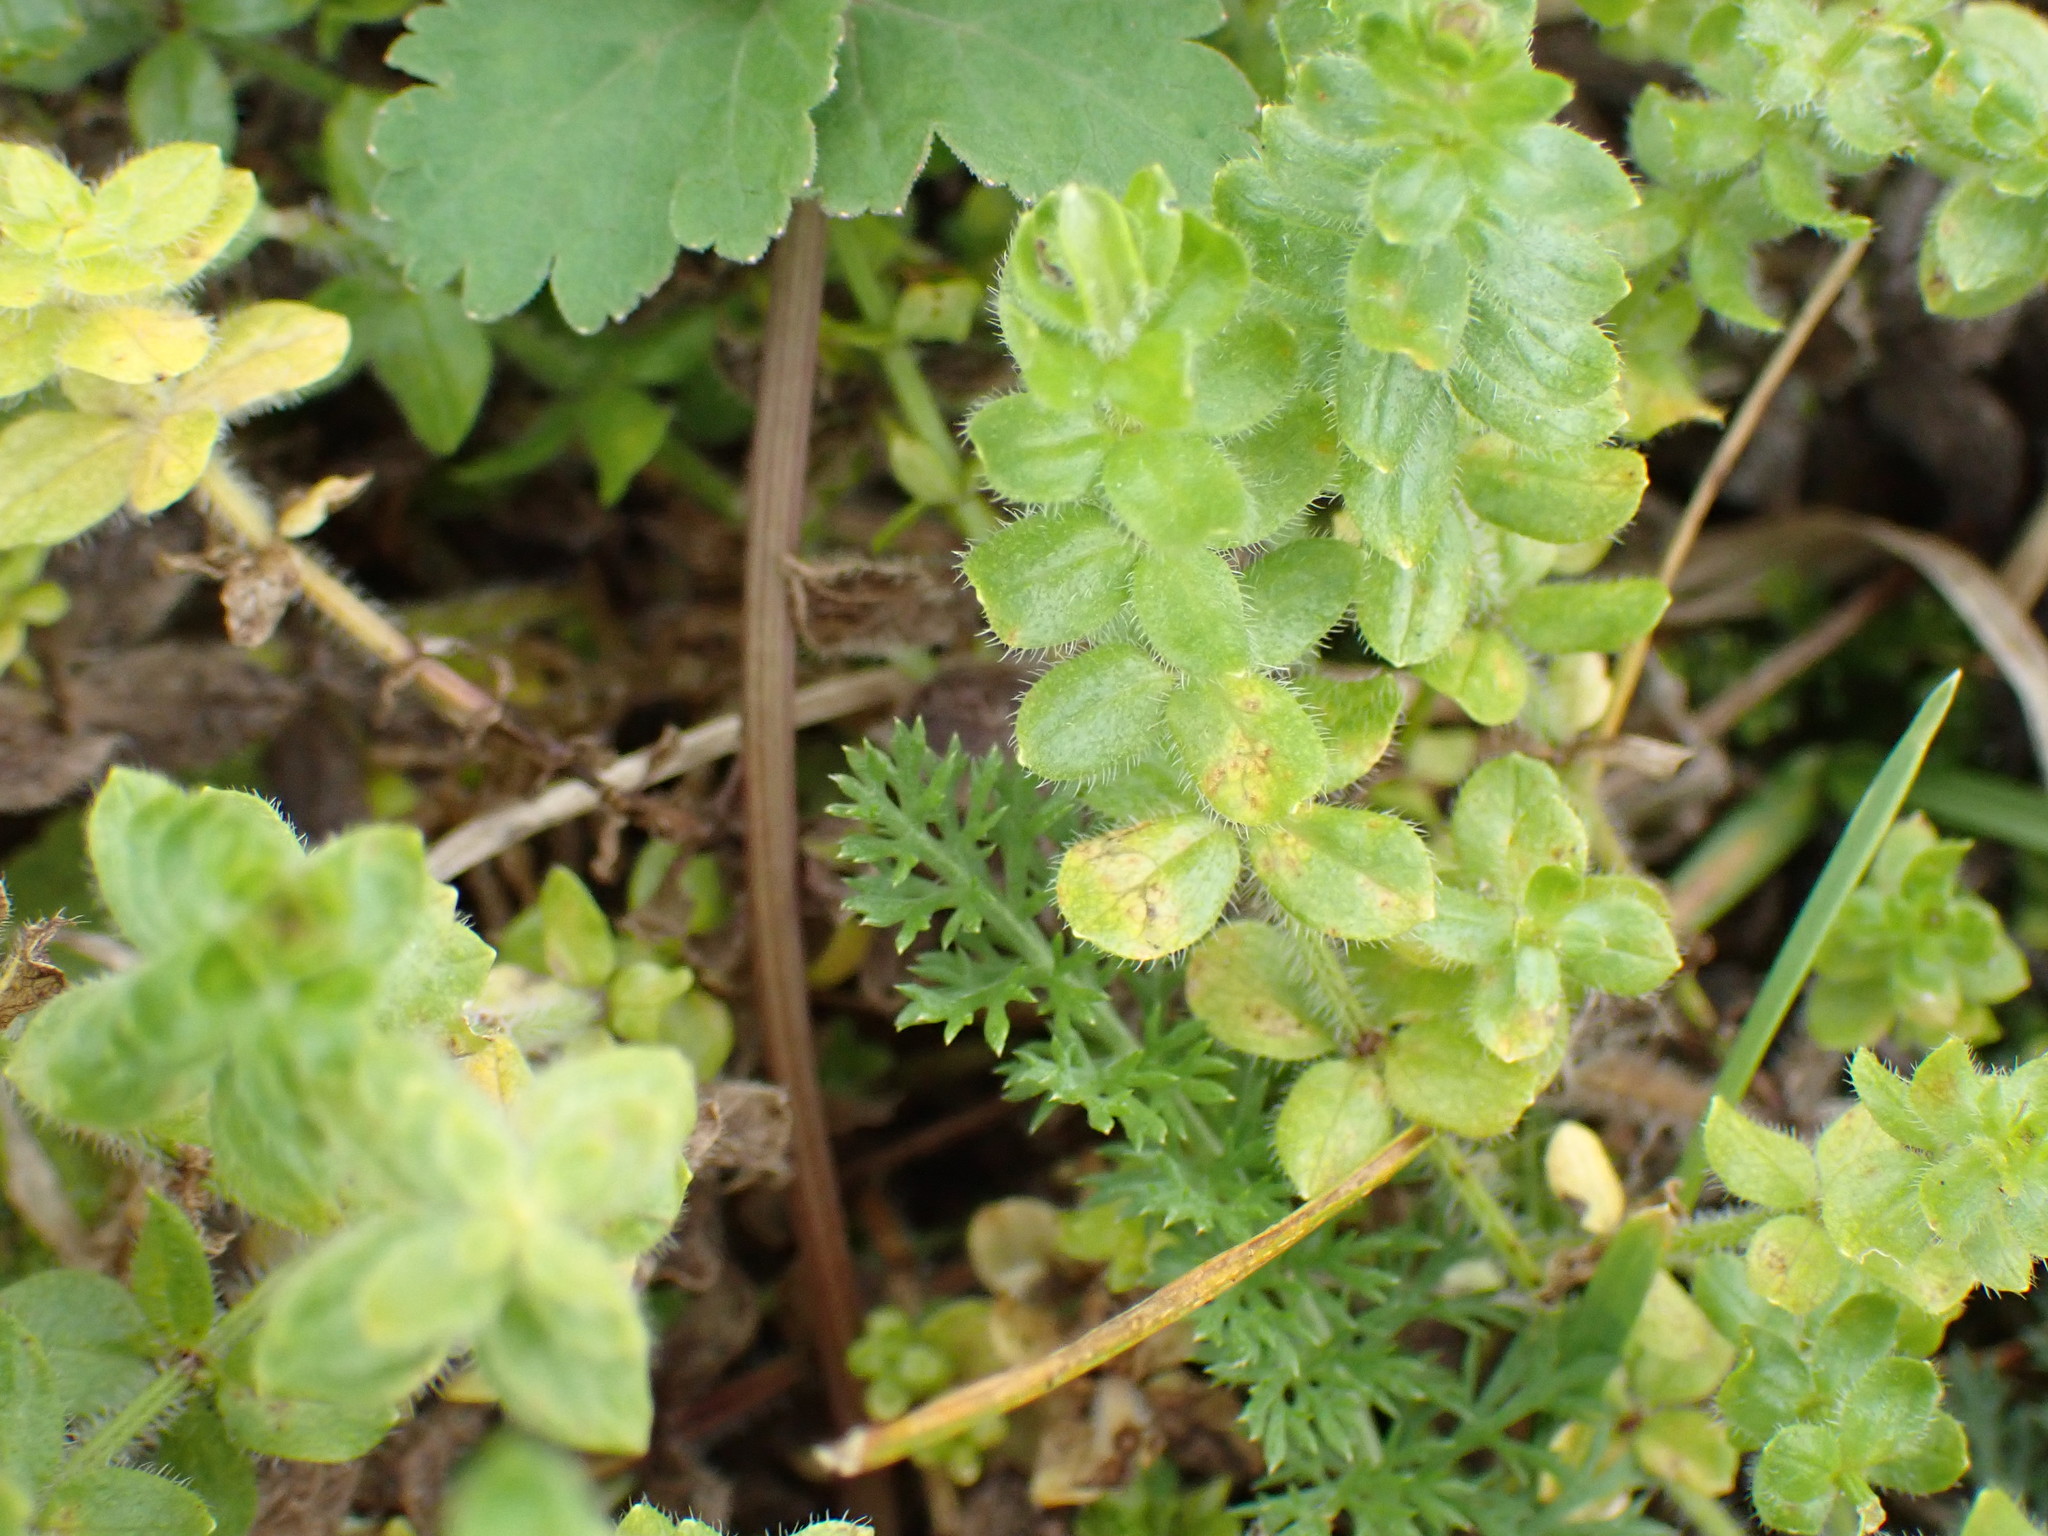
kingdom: Plantae
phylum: Tracheophyta
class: Magnoliopsida
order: Gentianales
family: Rubiaceae
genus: Cruciata
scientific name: Cruciata laevipes
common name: Crosswort
